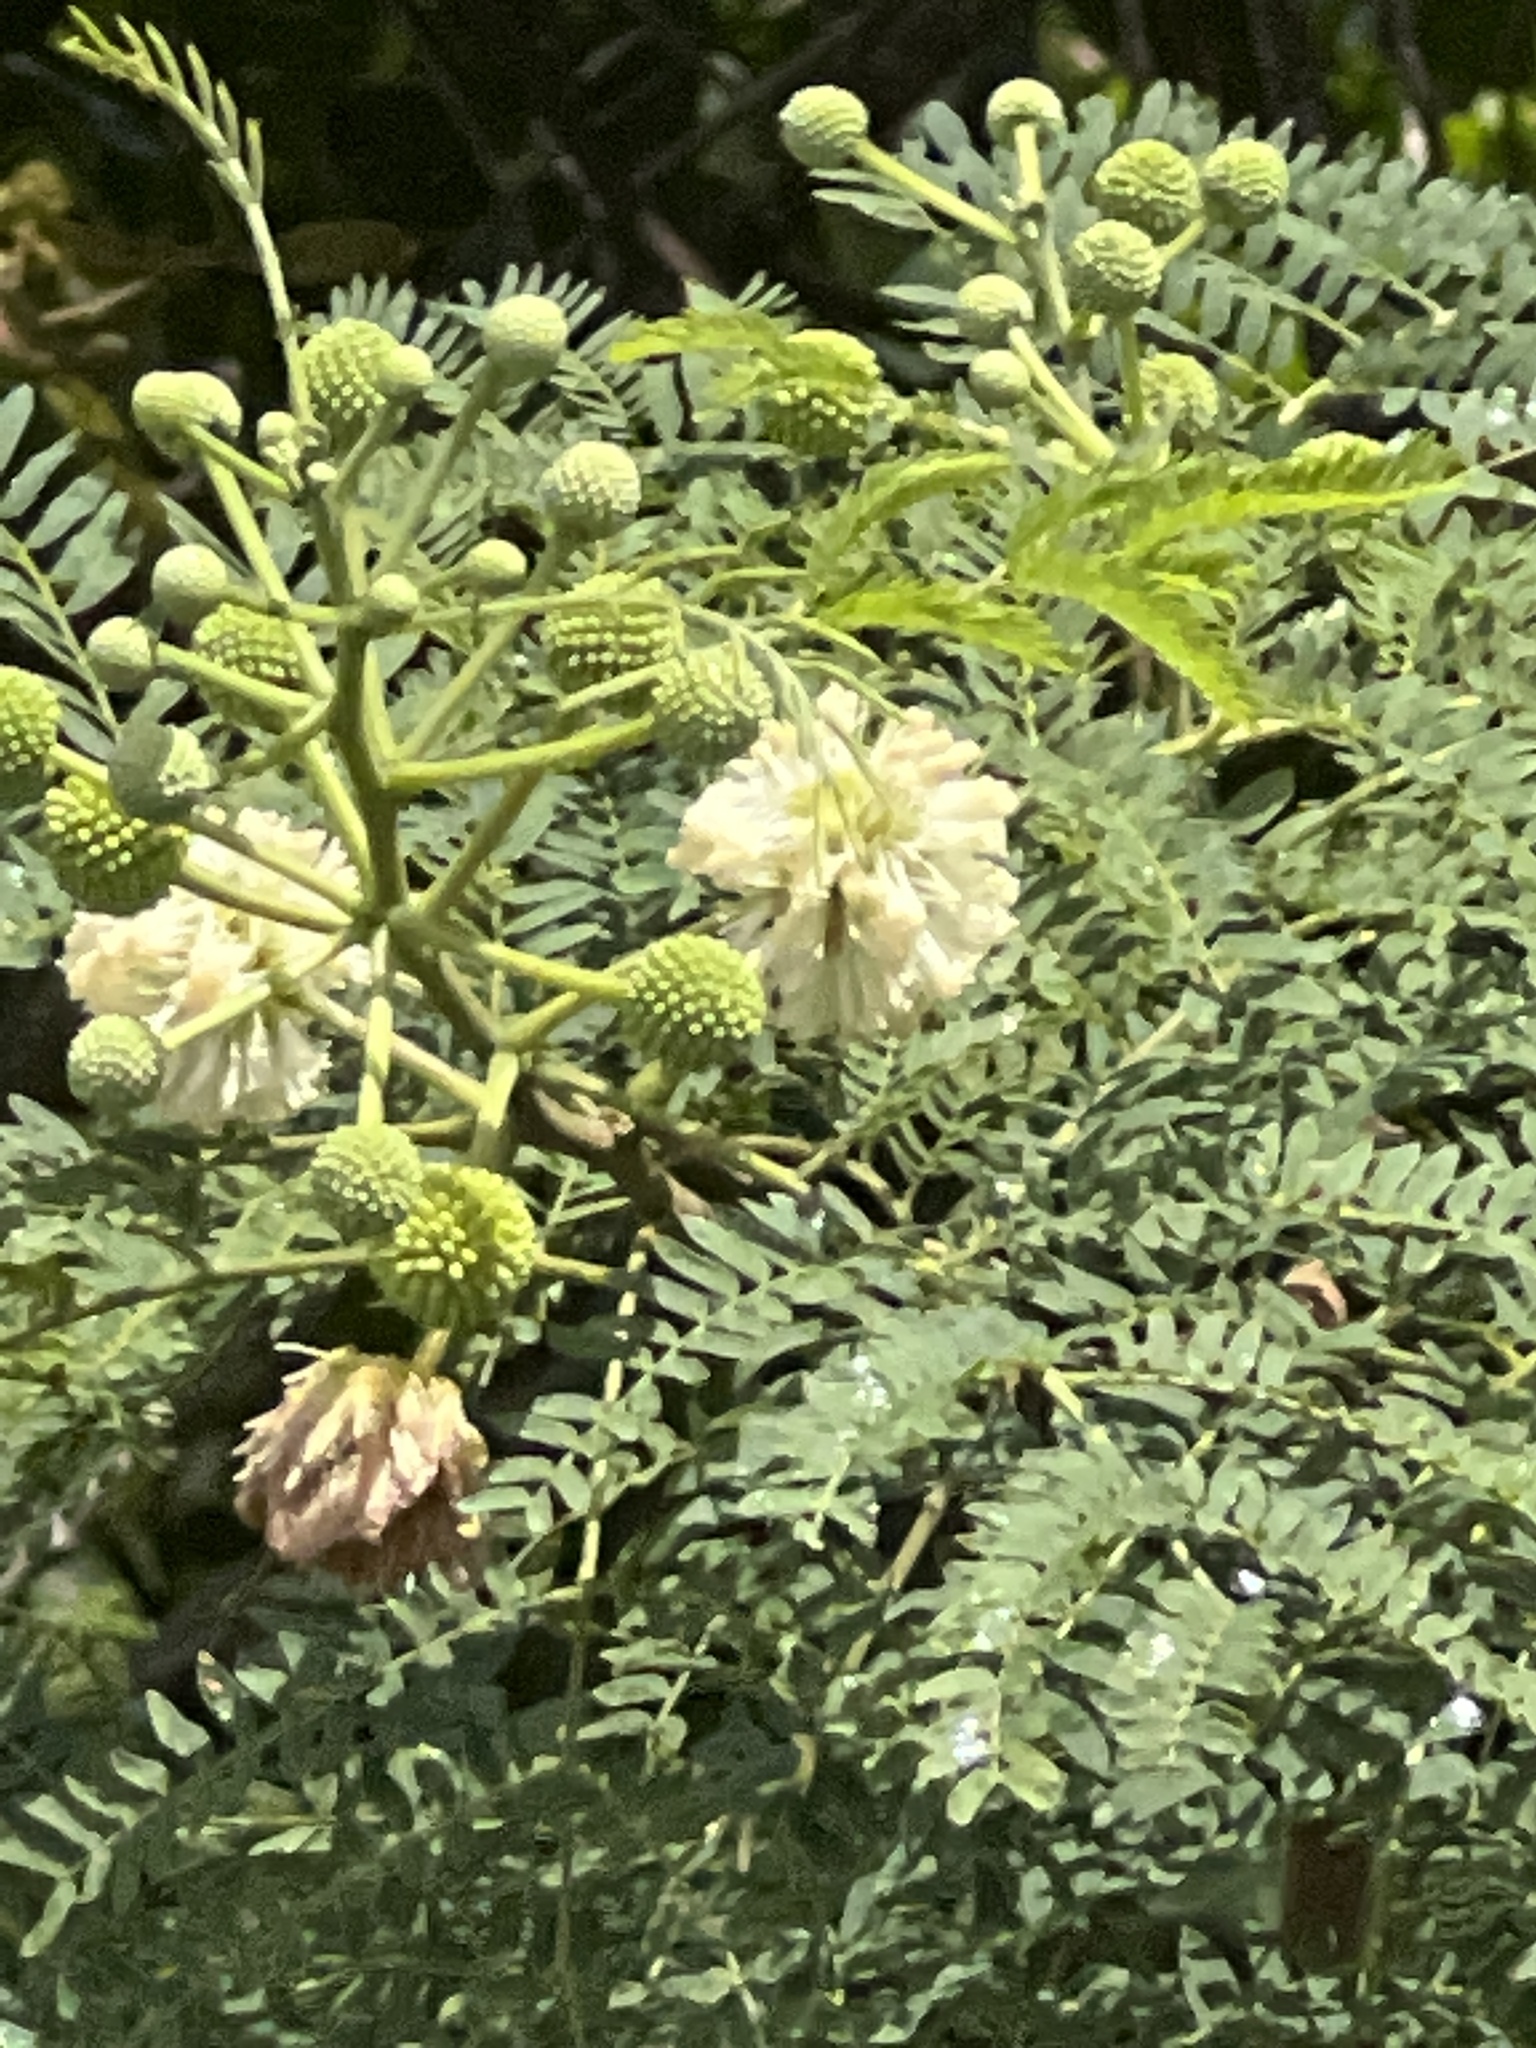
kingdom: Plantae
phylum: Tracheophyta
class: Magnoliopsida
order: Fabales
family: Fabaceae
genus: Leucaena
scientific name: Leucaena leucocephala
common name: White leadtree
